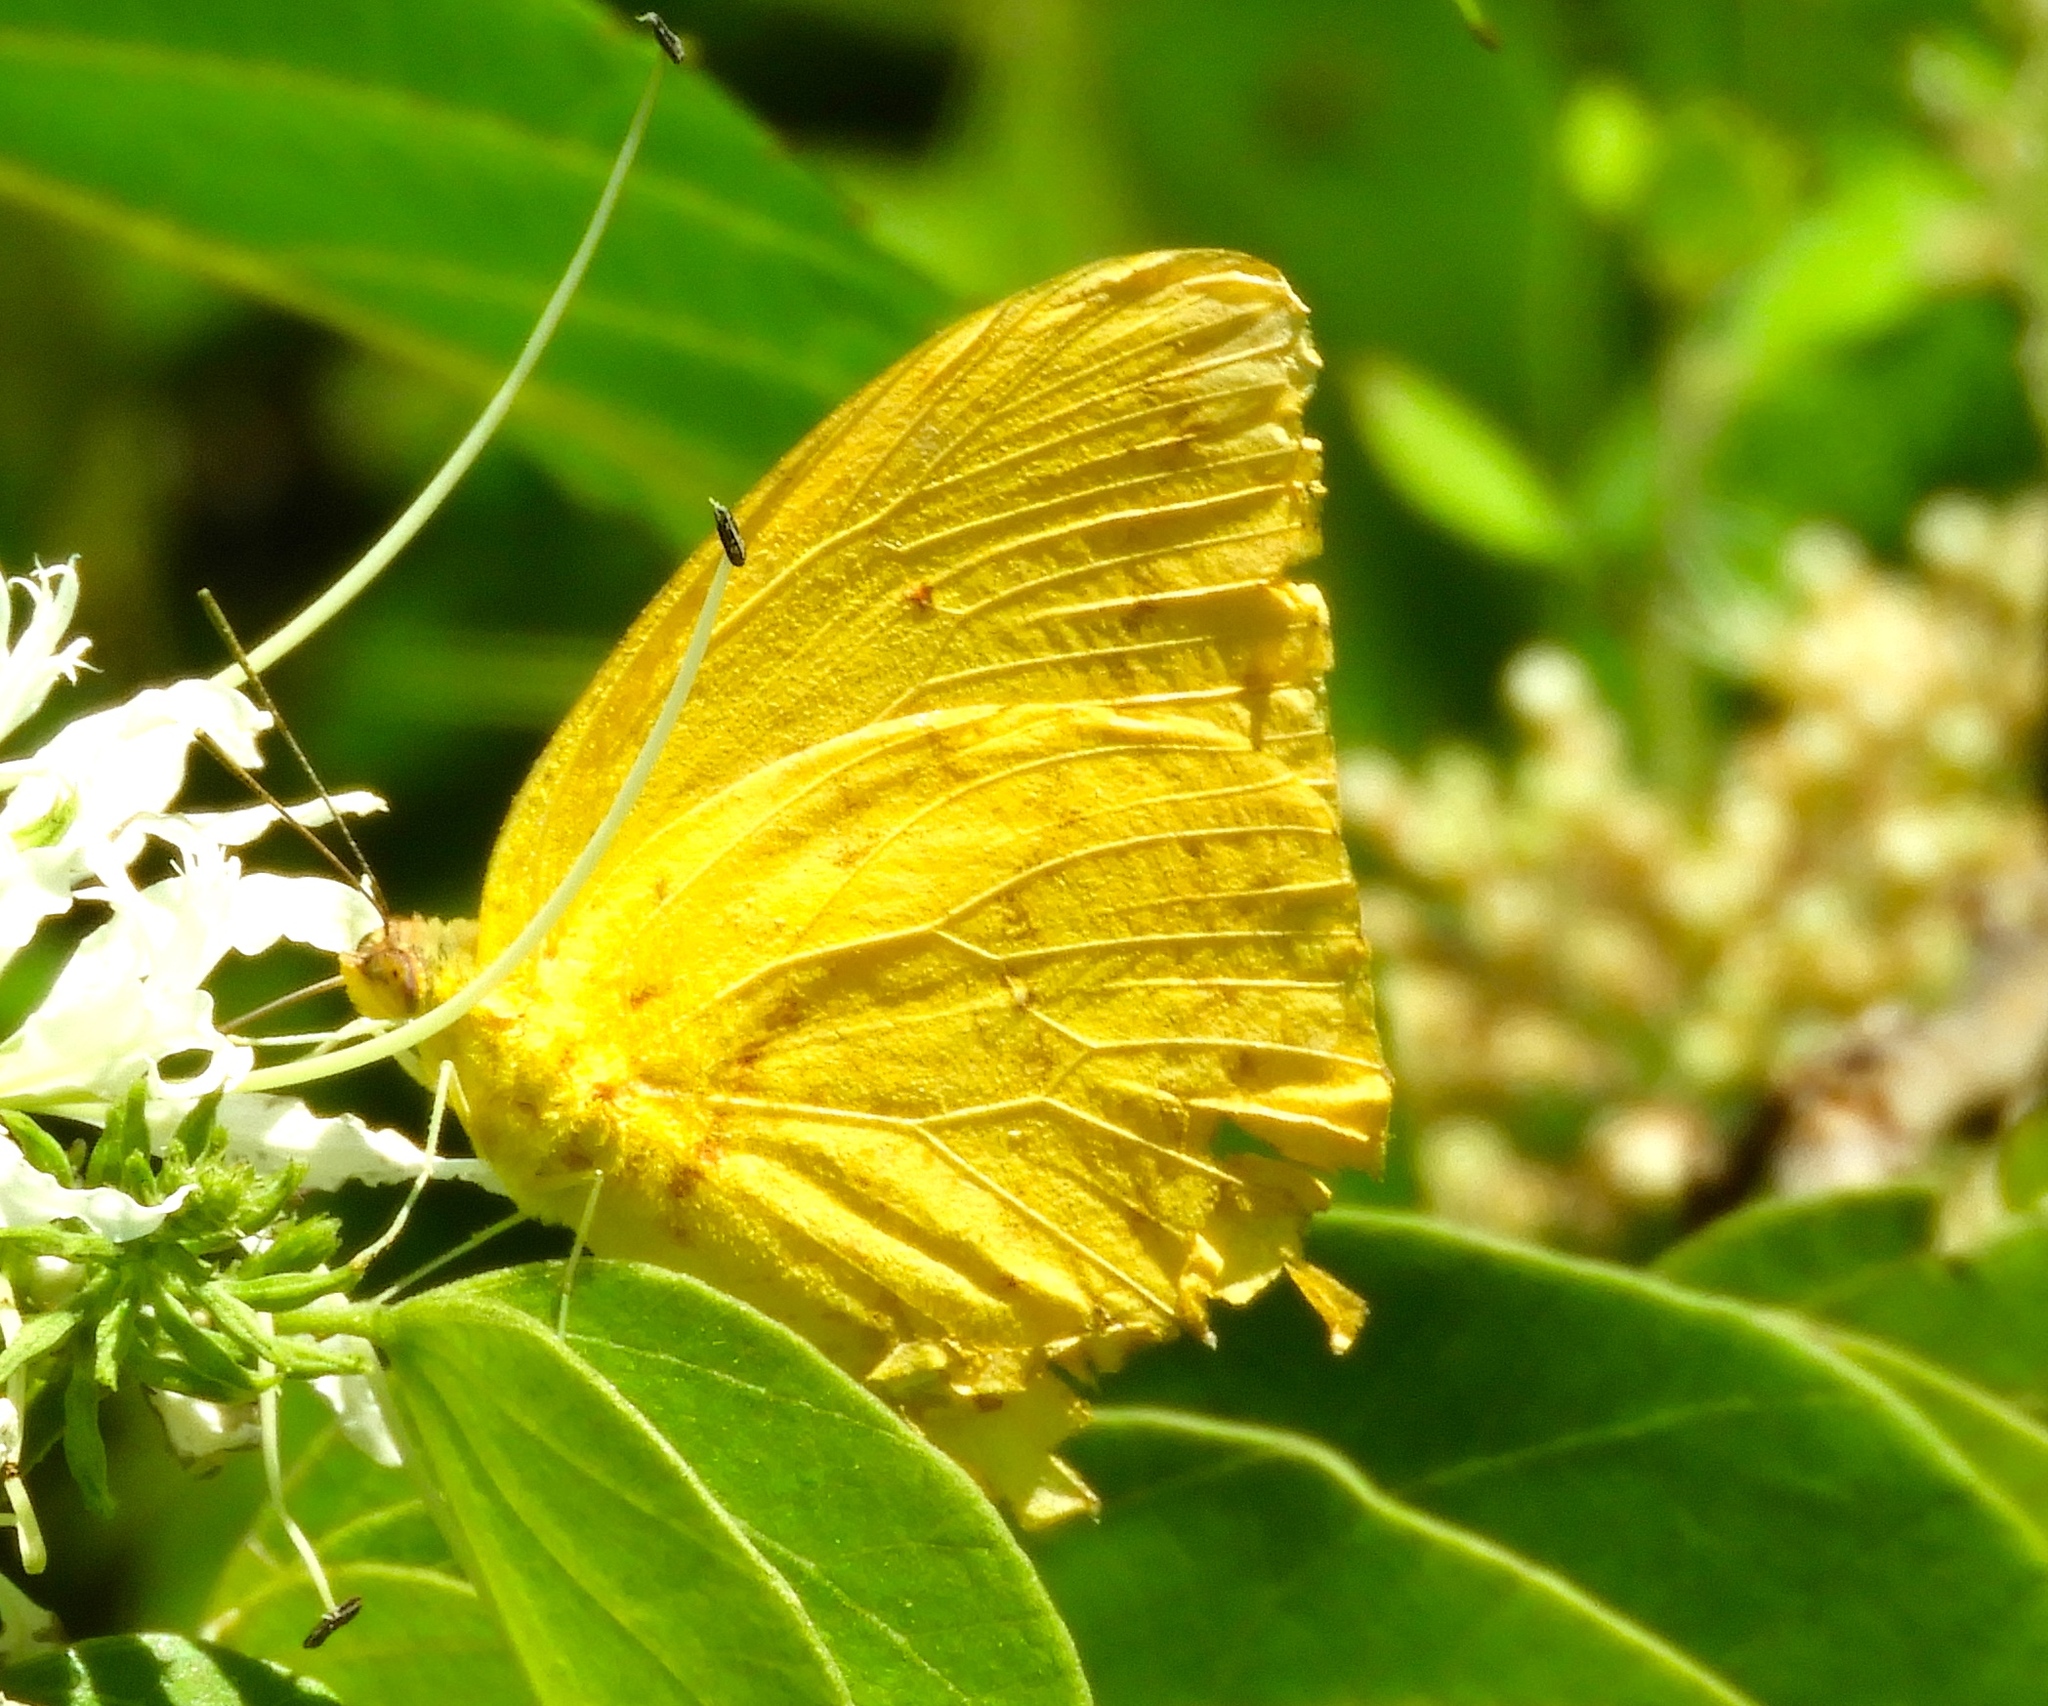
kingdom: Animalia
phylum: Arthropoda
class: Insecta
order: Lepidoptera
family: Pieridae
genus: Phoebis
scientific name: Phoebis agarithe
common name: Large orange sulphur
